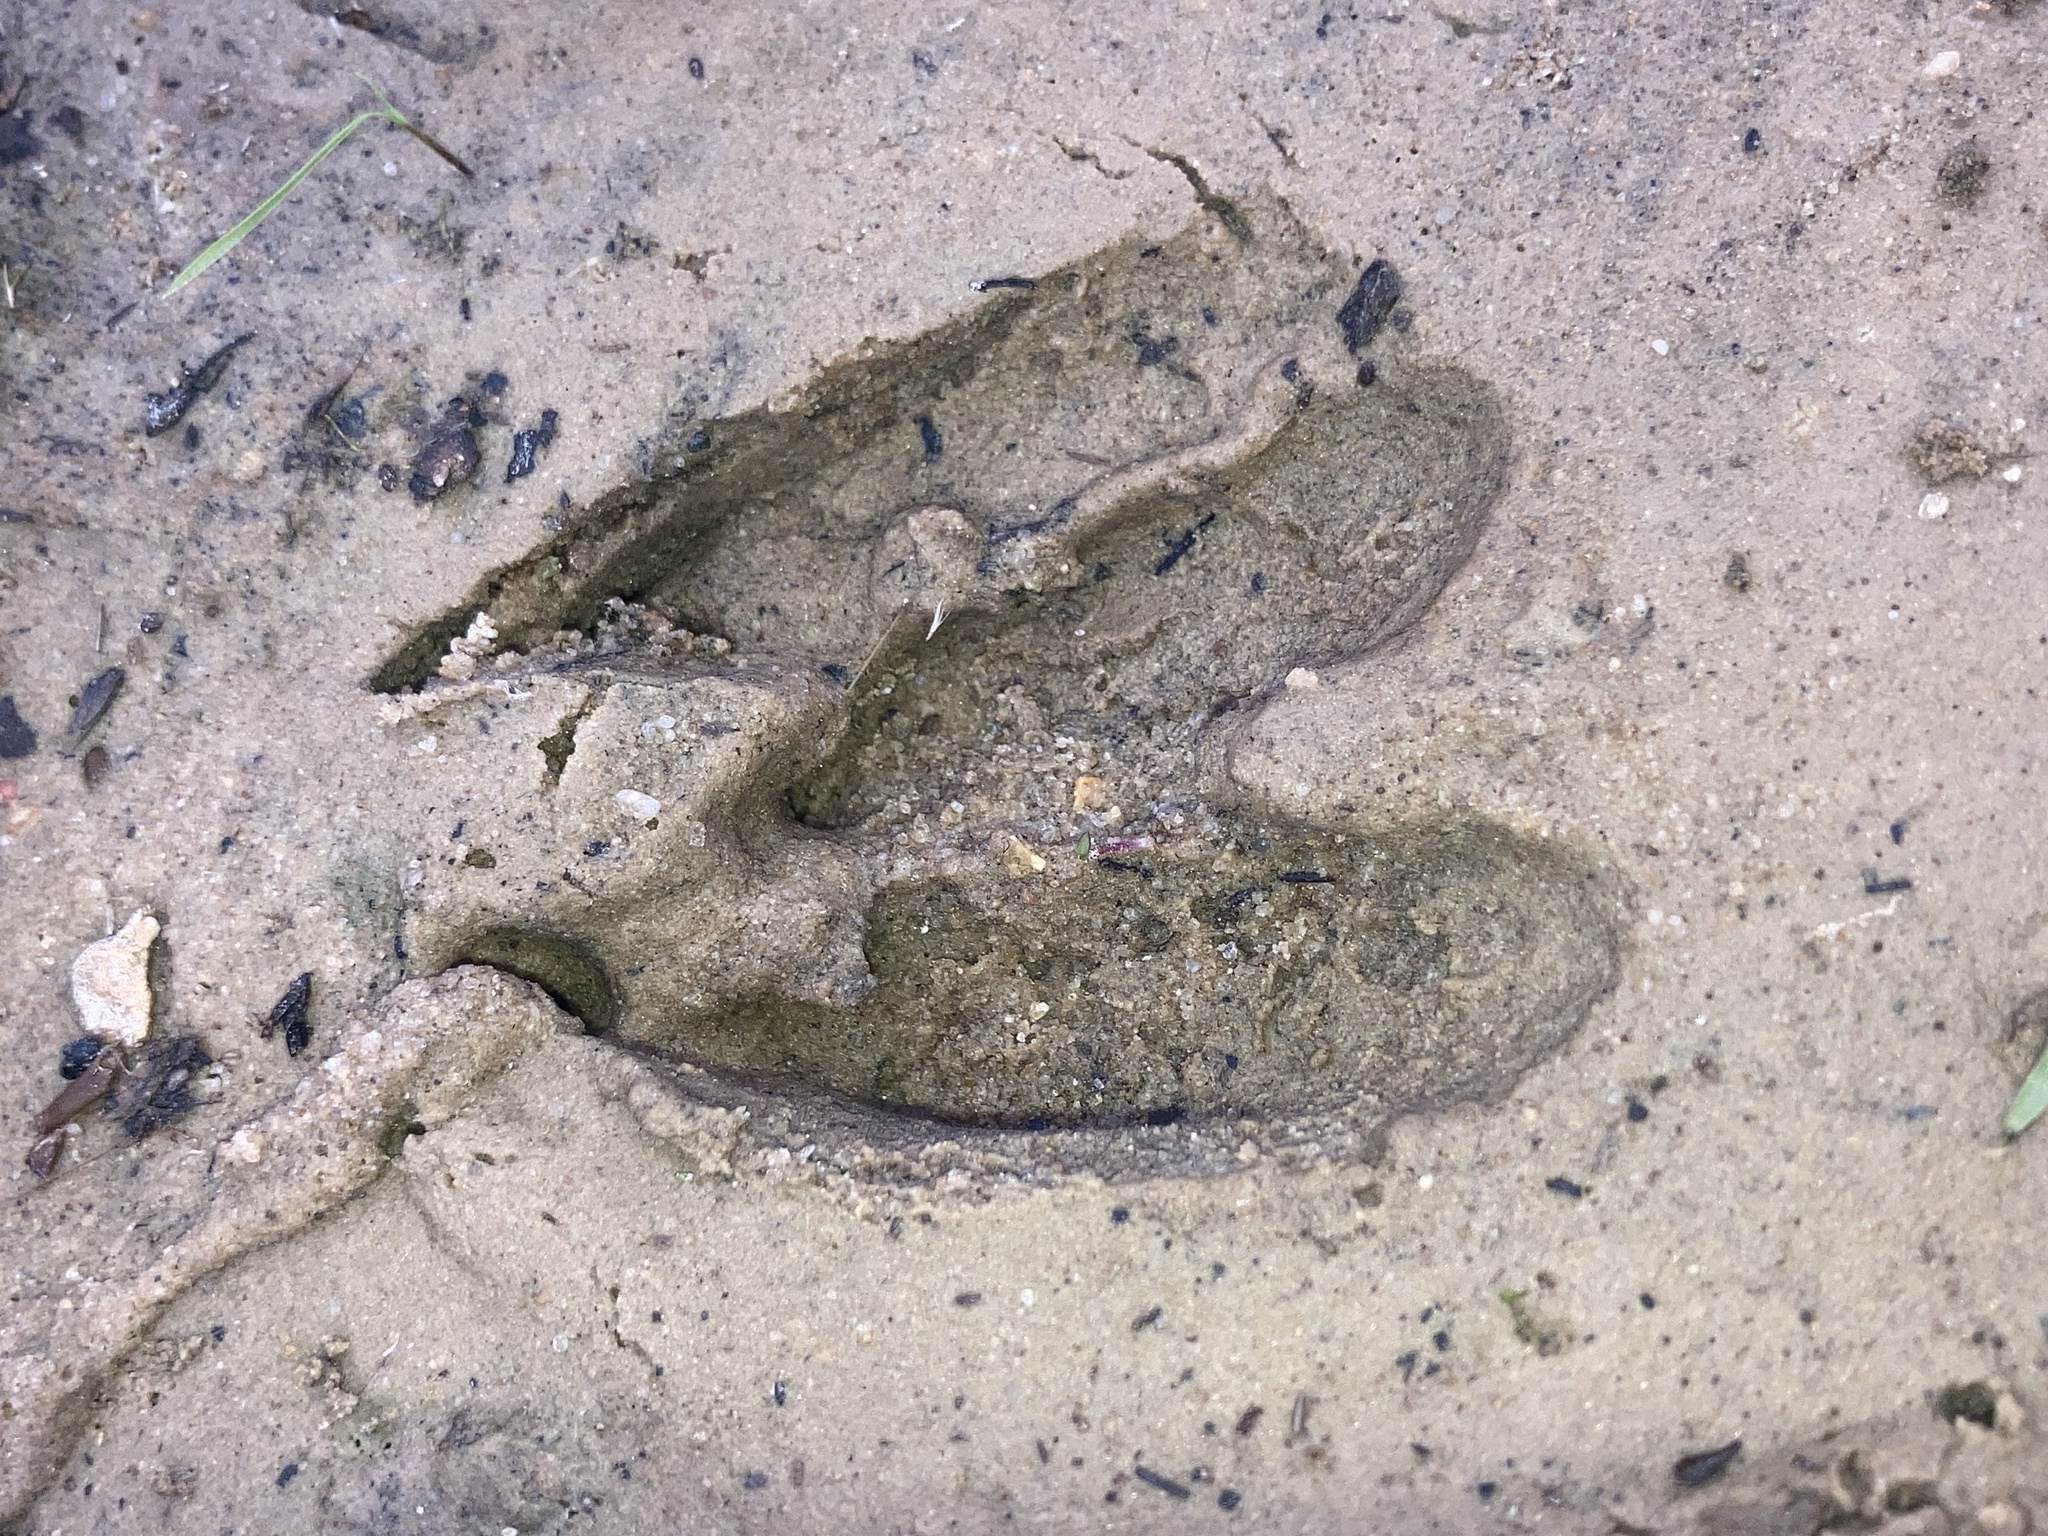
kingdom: Animalia
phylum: Chordata
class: Mammalia
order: Artiodactyla
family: Cervidae
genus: Odocoileus
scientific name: Odocoileus virginianus
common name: White-tailed deer
